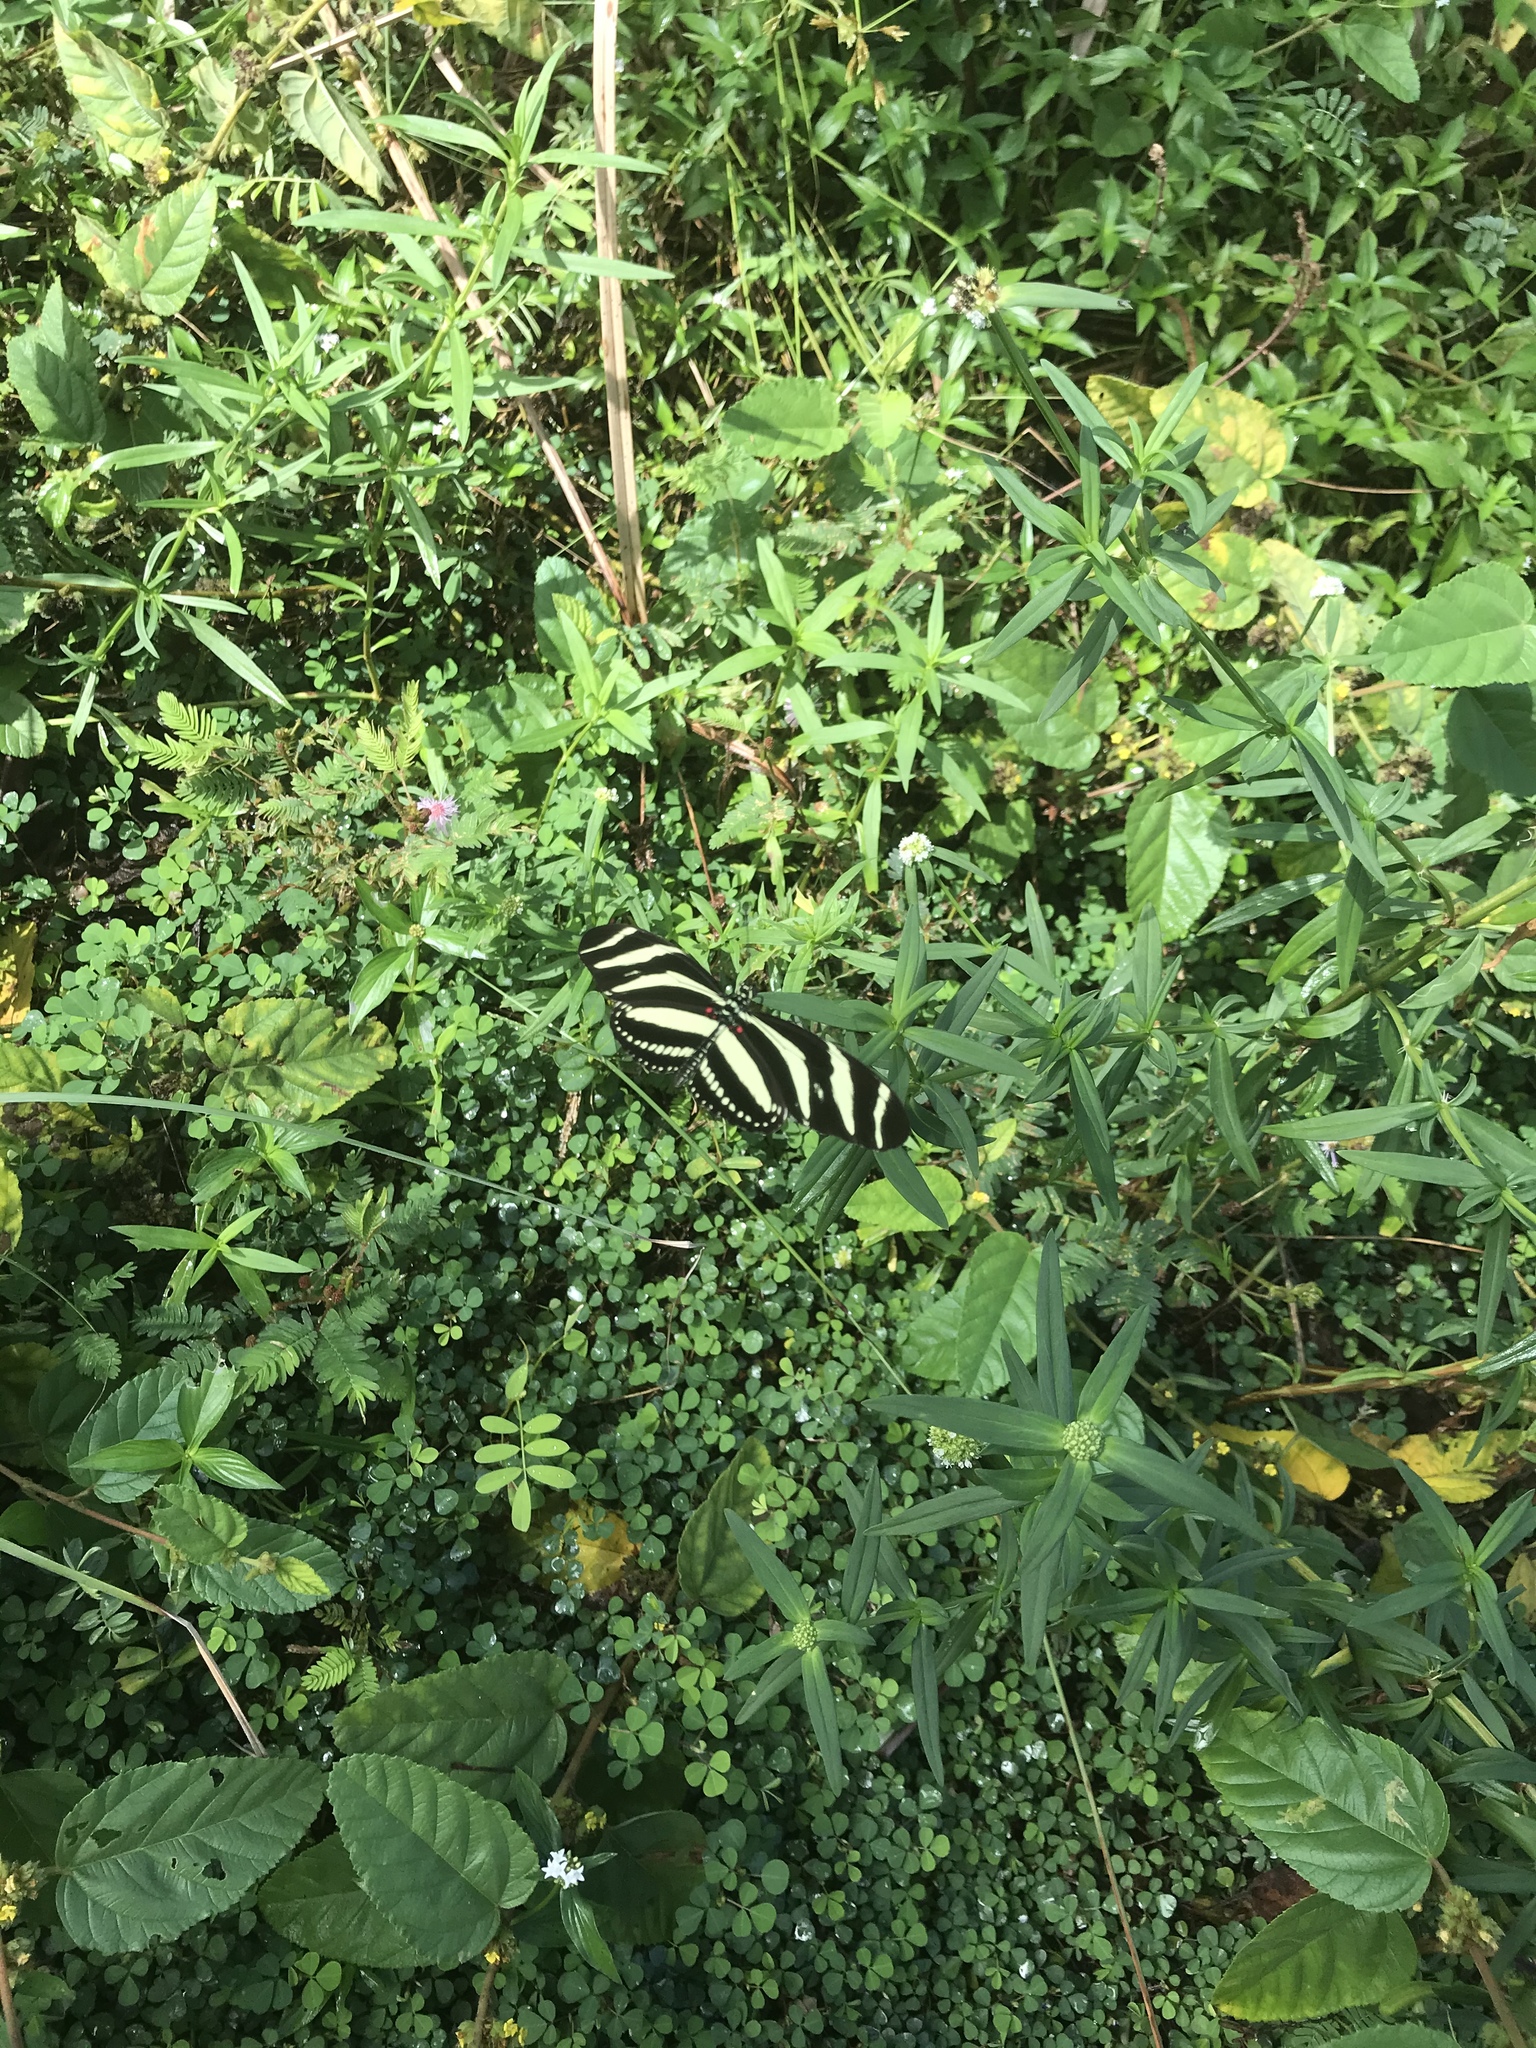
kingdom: Animalia
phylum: Arthropoda
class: Insecta
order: Lepidoptera
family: Nymphalidae
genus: Heliconius
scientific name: Heliconius charithonia
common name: Zebra long wing
